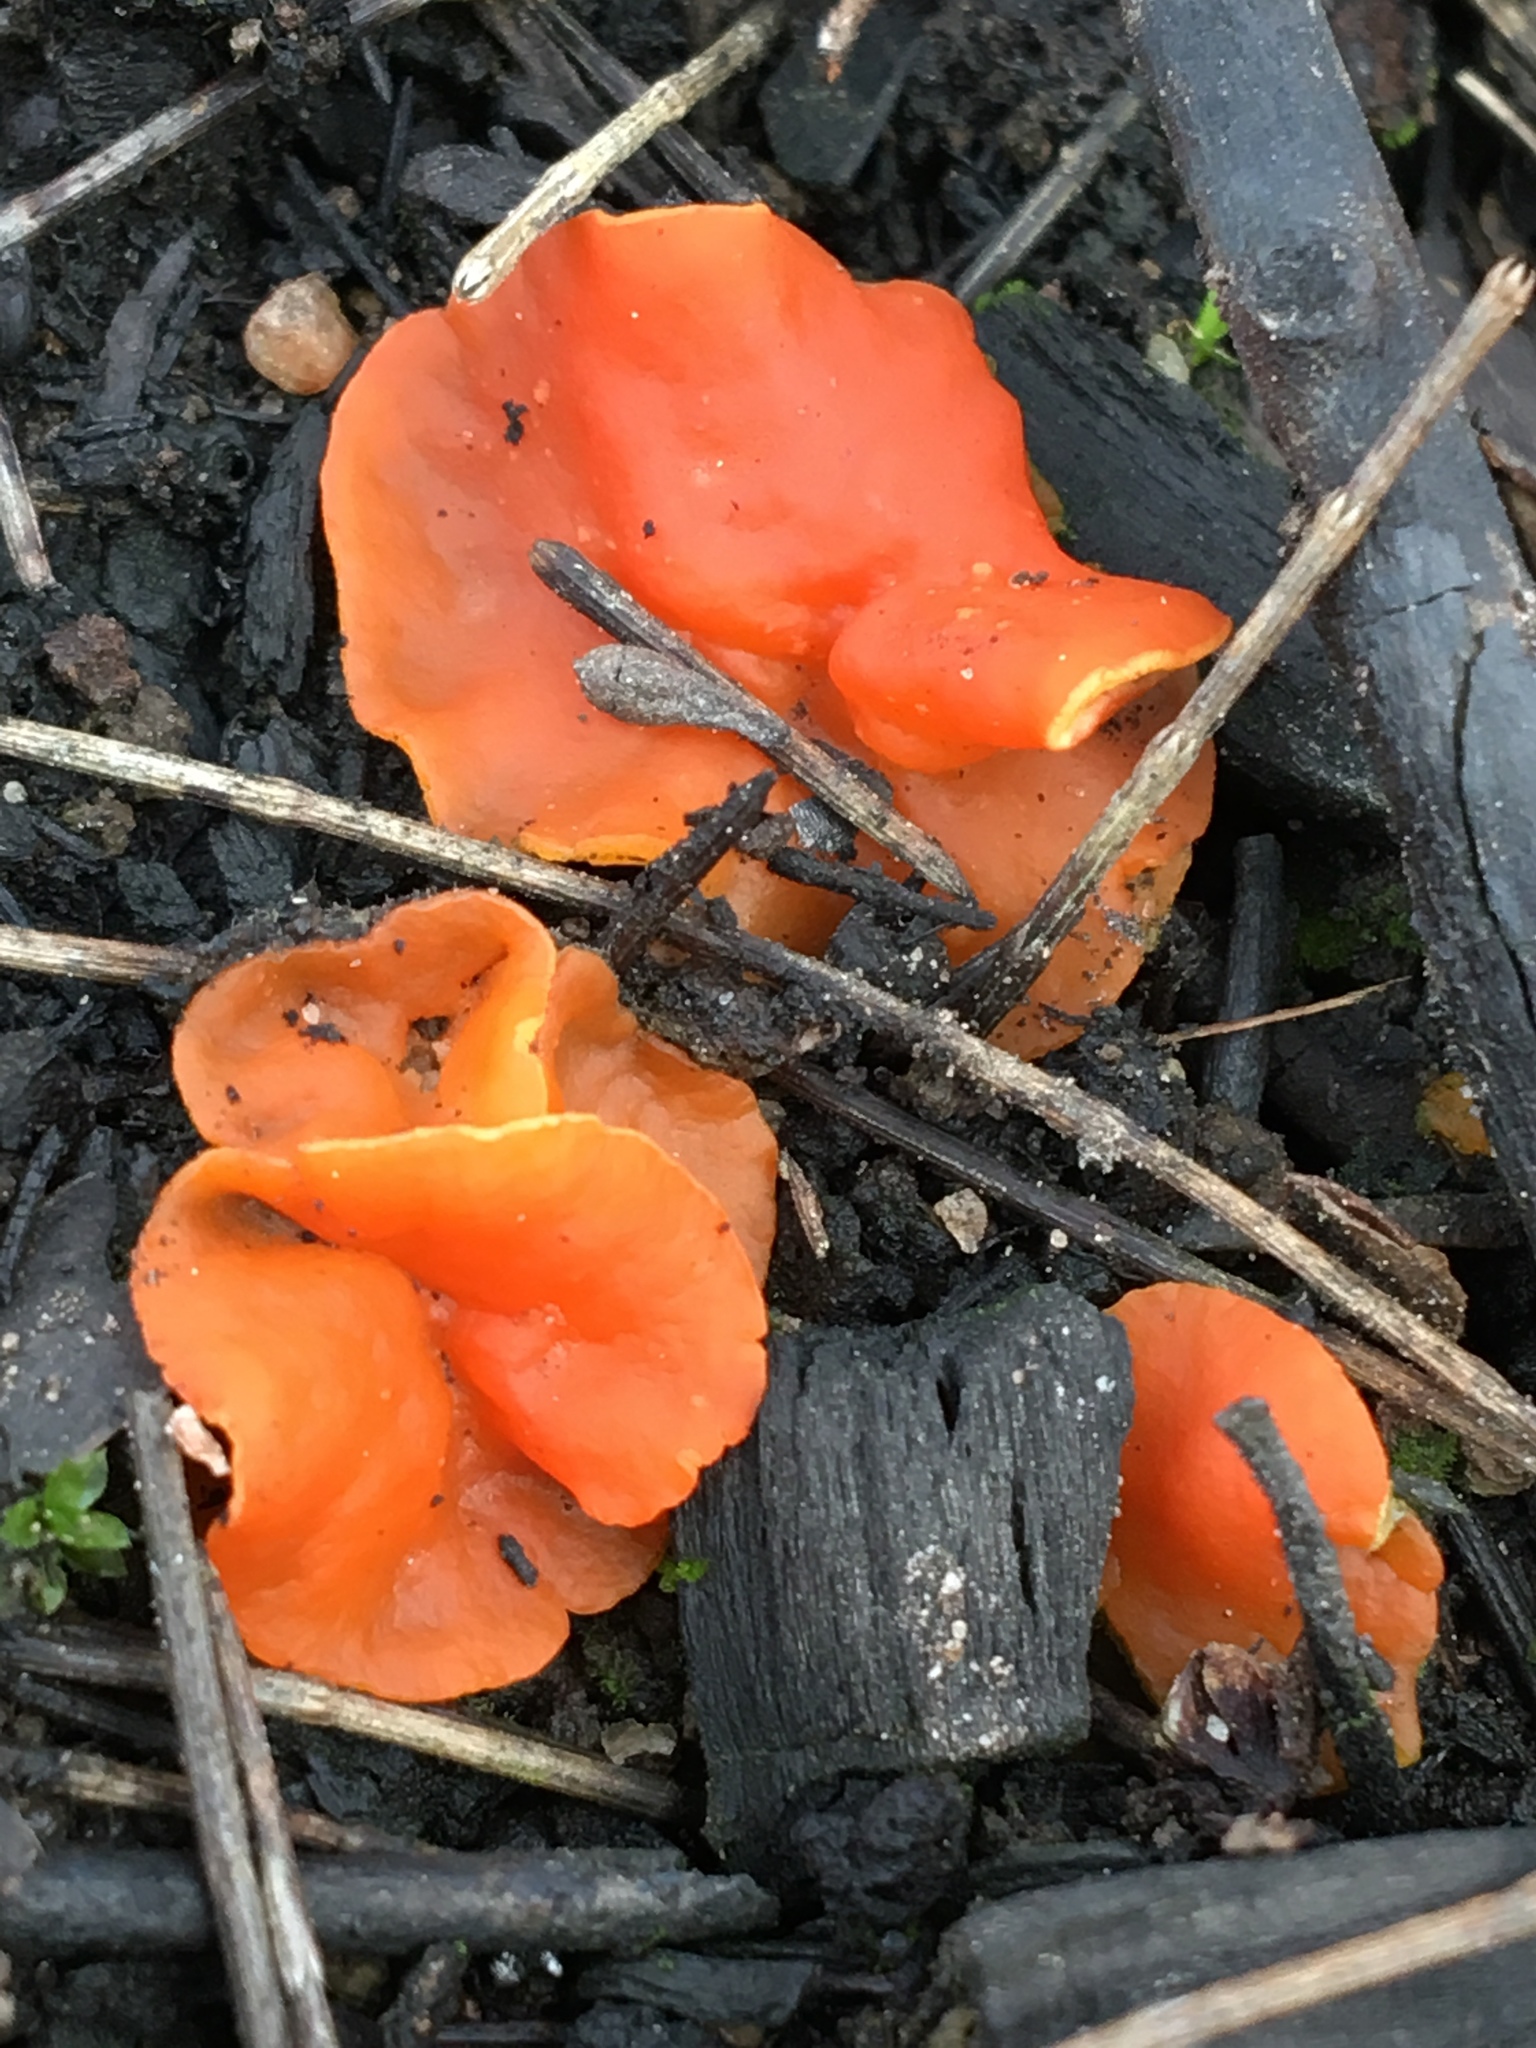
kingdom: Fungi
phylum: Ascomycota
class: Pezizomycetes
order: Pezizales
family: Pyronemataceae
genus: Aleuria
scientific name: Aleuria aurantia
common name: Orange peel fungus
